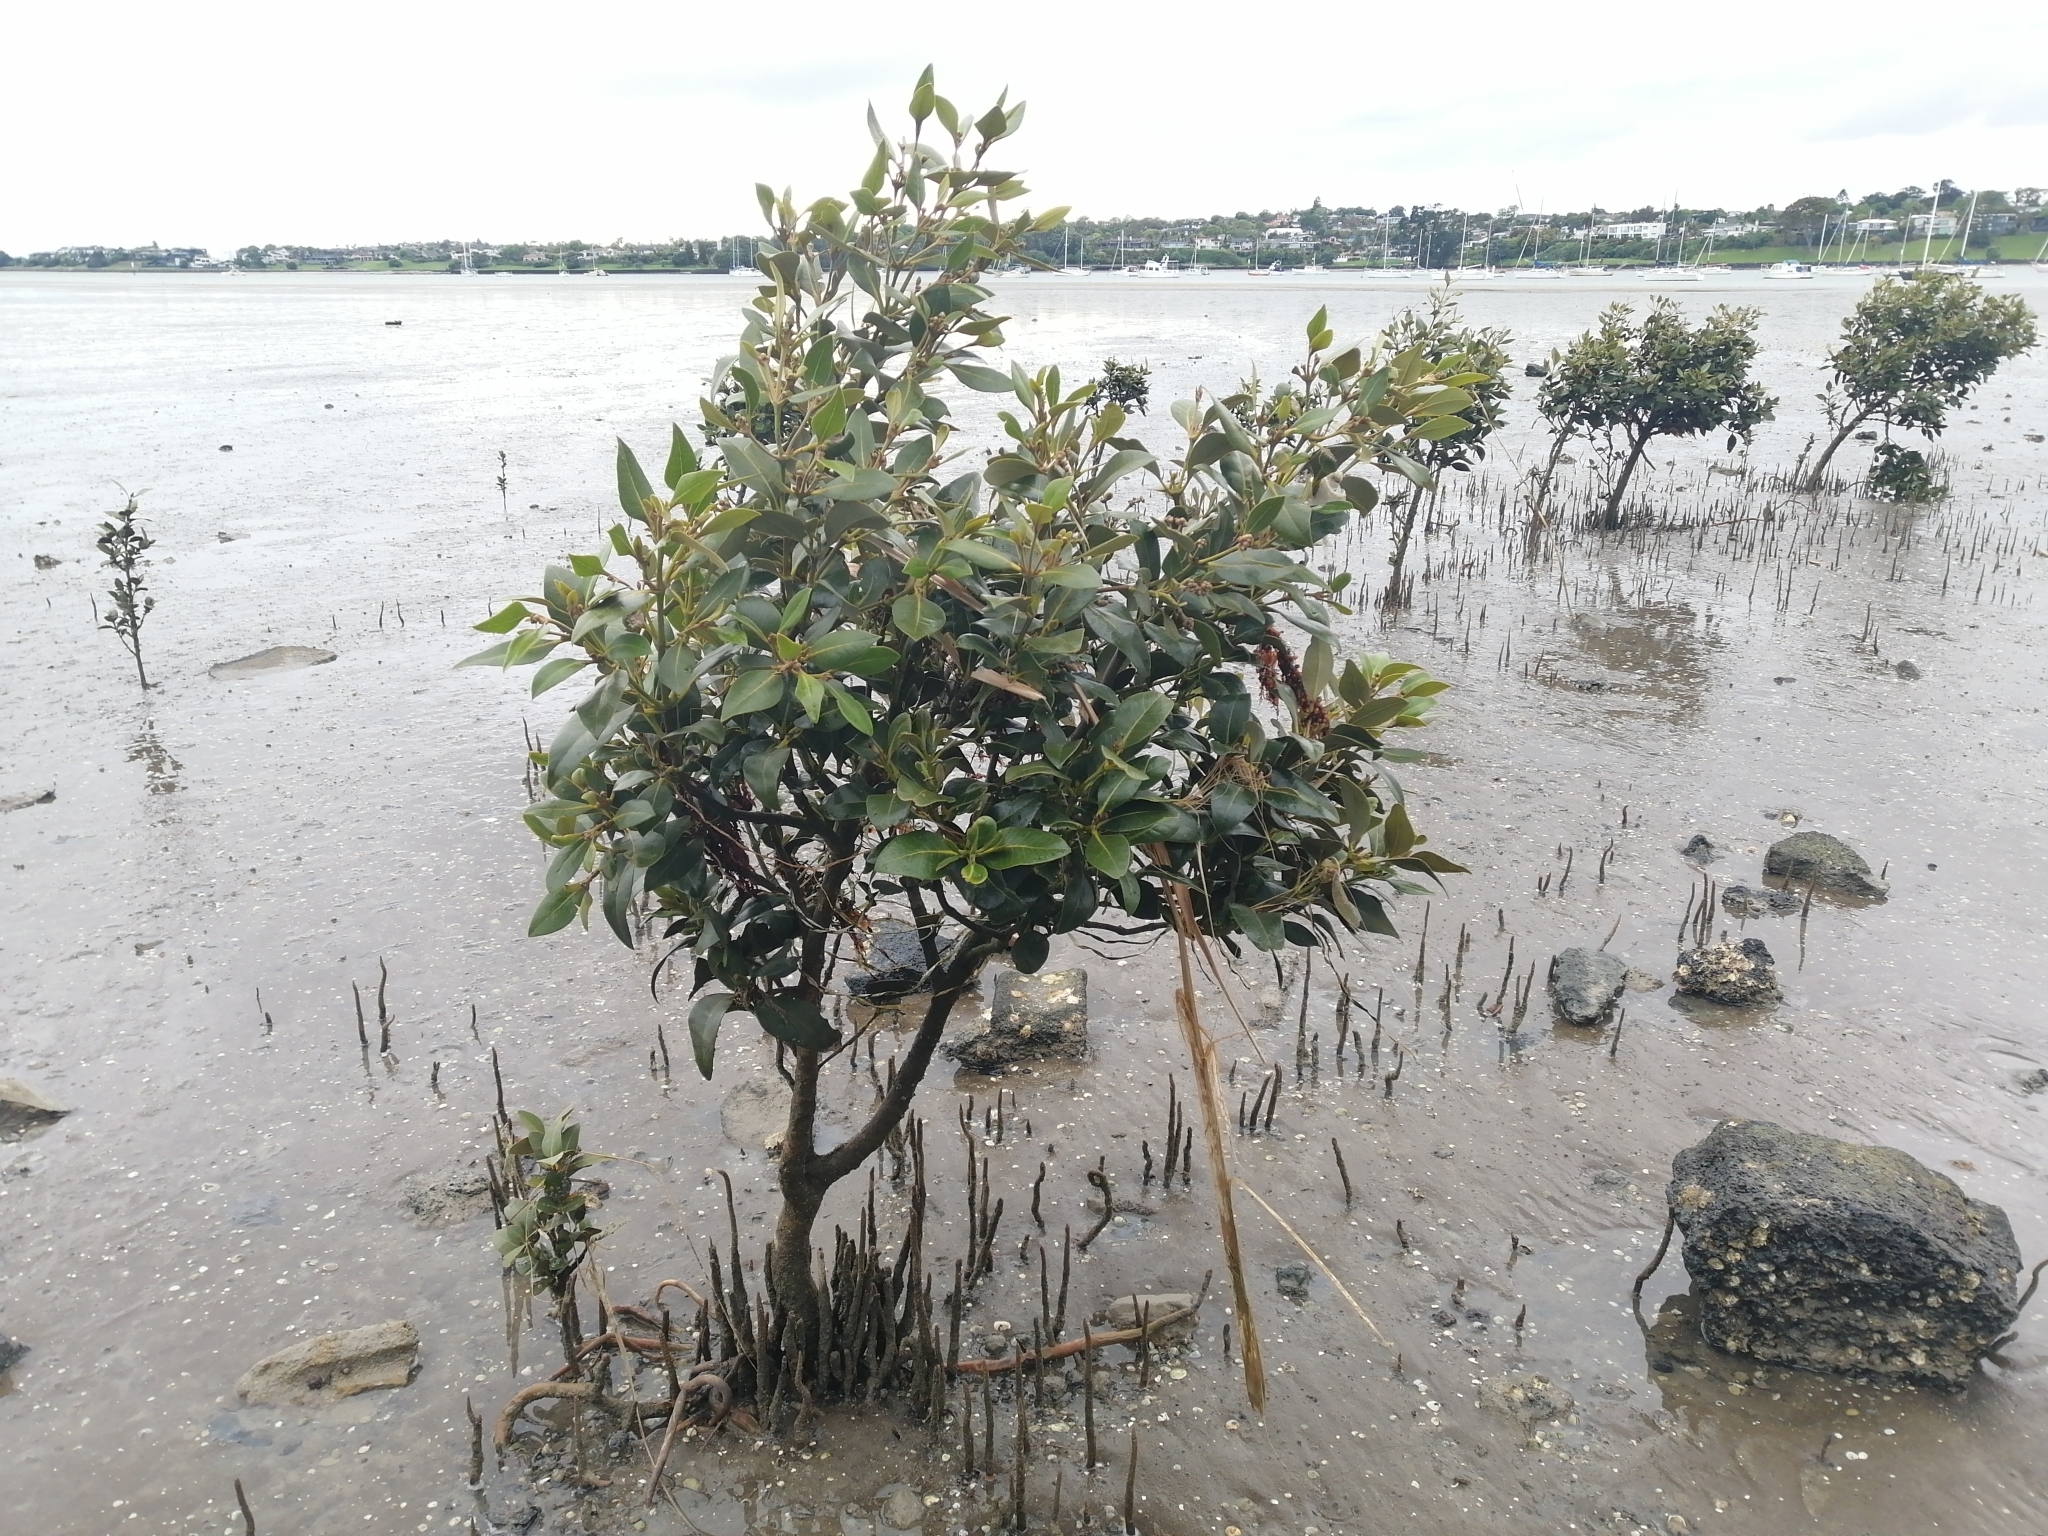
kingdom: Plantae
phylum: Tracheophyta
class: Magnoliopsida
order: Lamiales
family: Acanthaceae
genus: Avicennia
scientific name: Avicennia marina
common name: Gray mangrove
